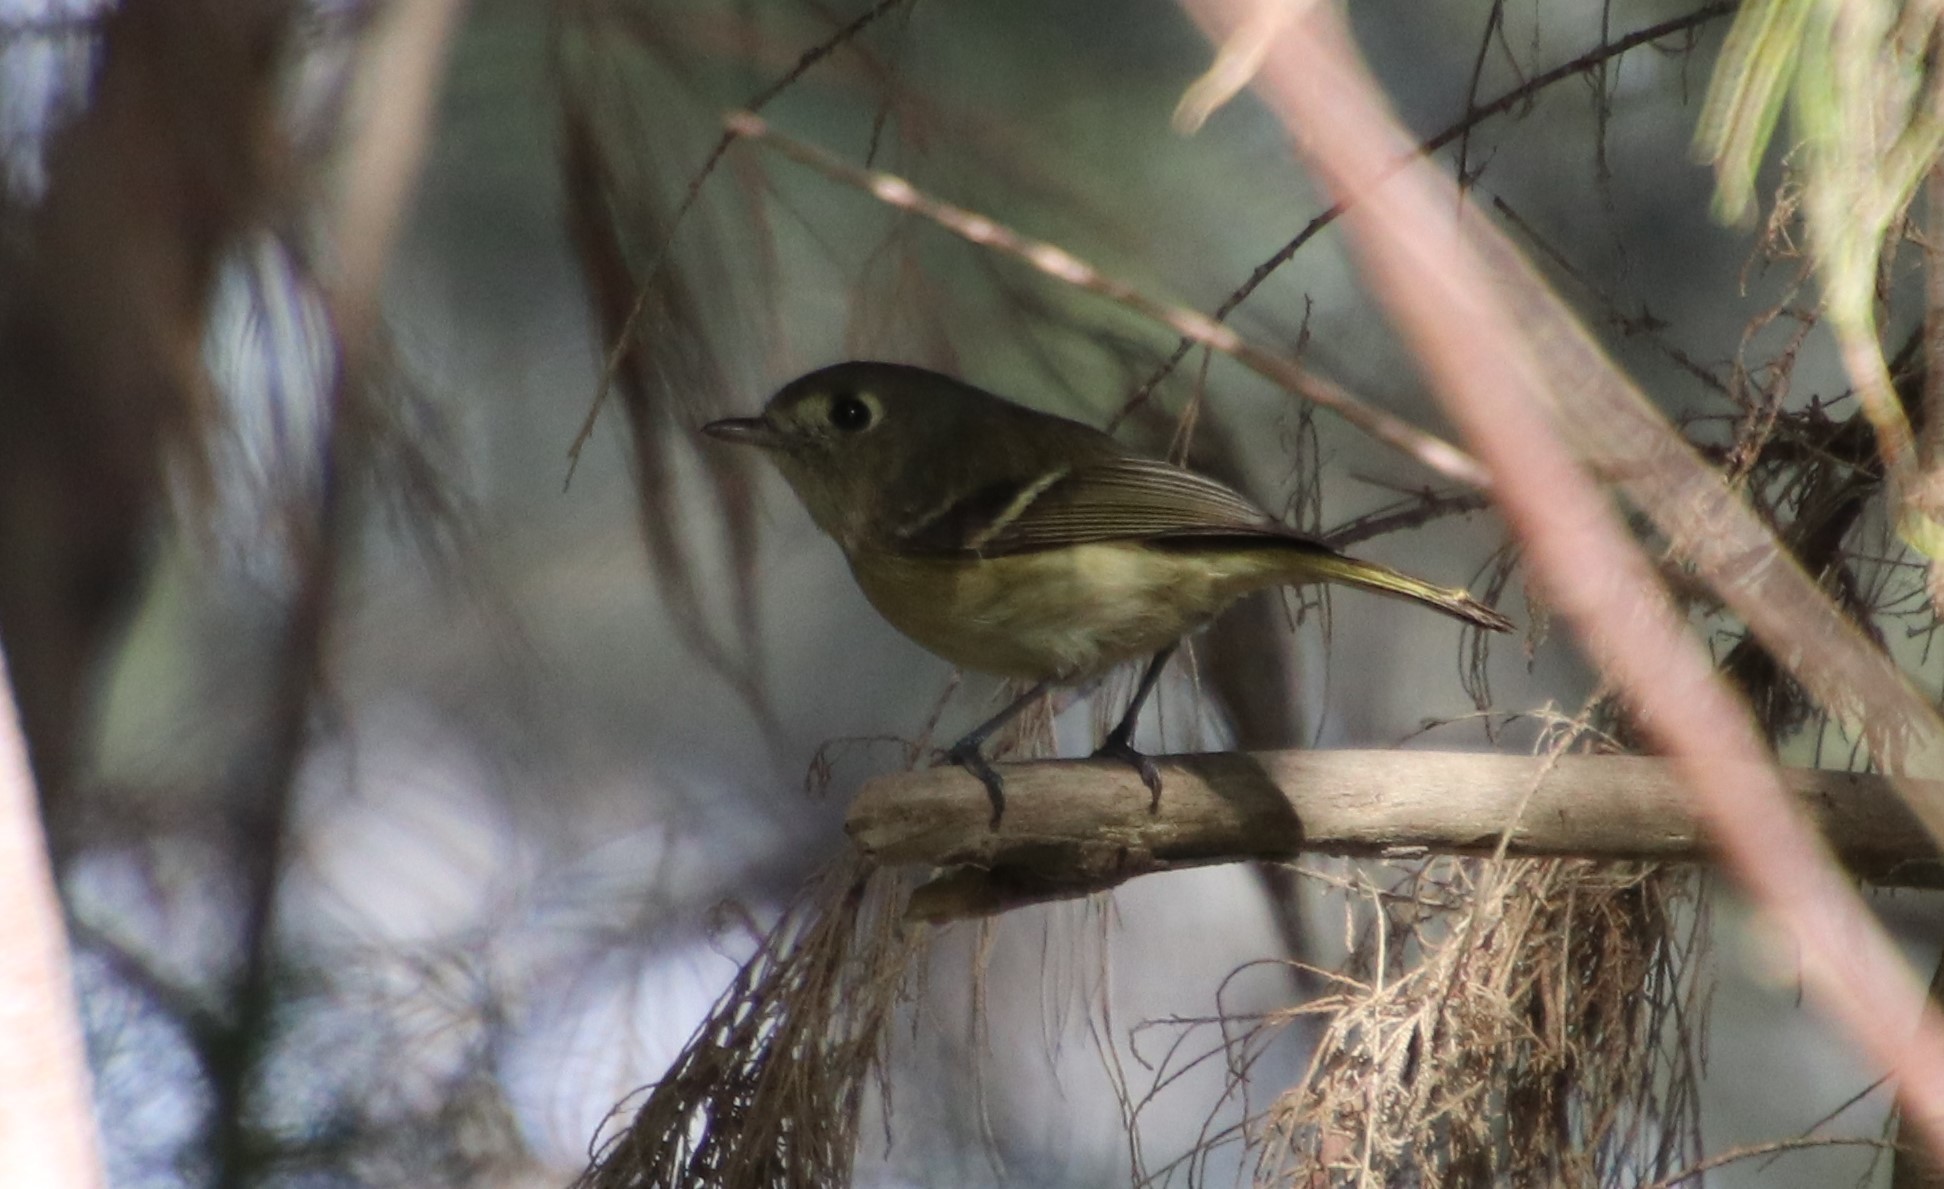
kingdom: Animalia
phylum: Chordata
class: Aves
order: Passeriformes
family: Vireonidae
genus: Vireo
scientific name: Vireo huttoni
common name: Hutton's vireo
